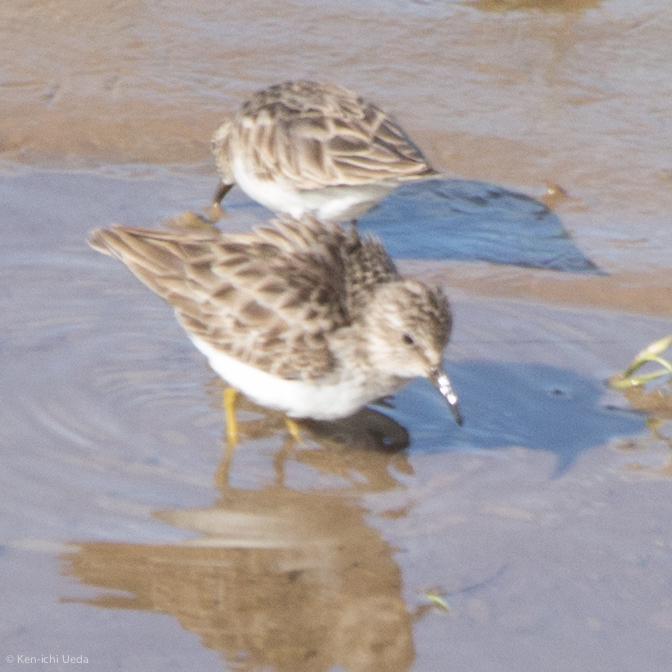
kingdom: Animalia
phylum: Chordata
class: Aves
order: Charadriiformes
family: Scolopacidae
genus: Calidris
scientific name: Calidris minutilla
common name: Least sandpiper
